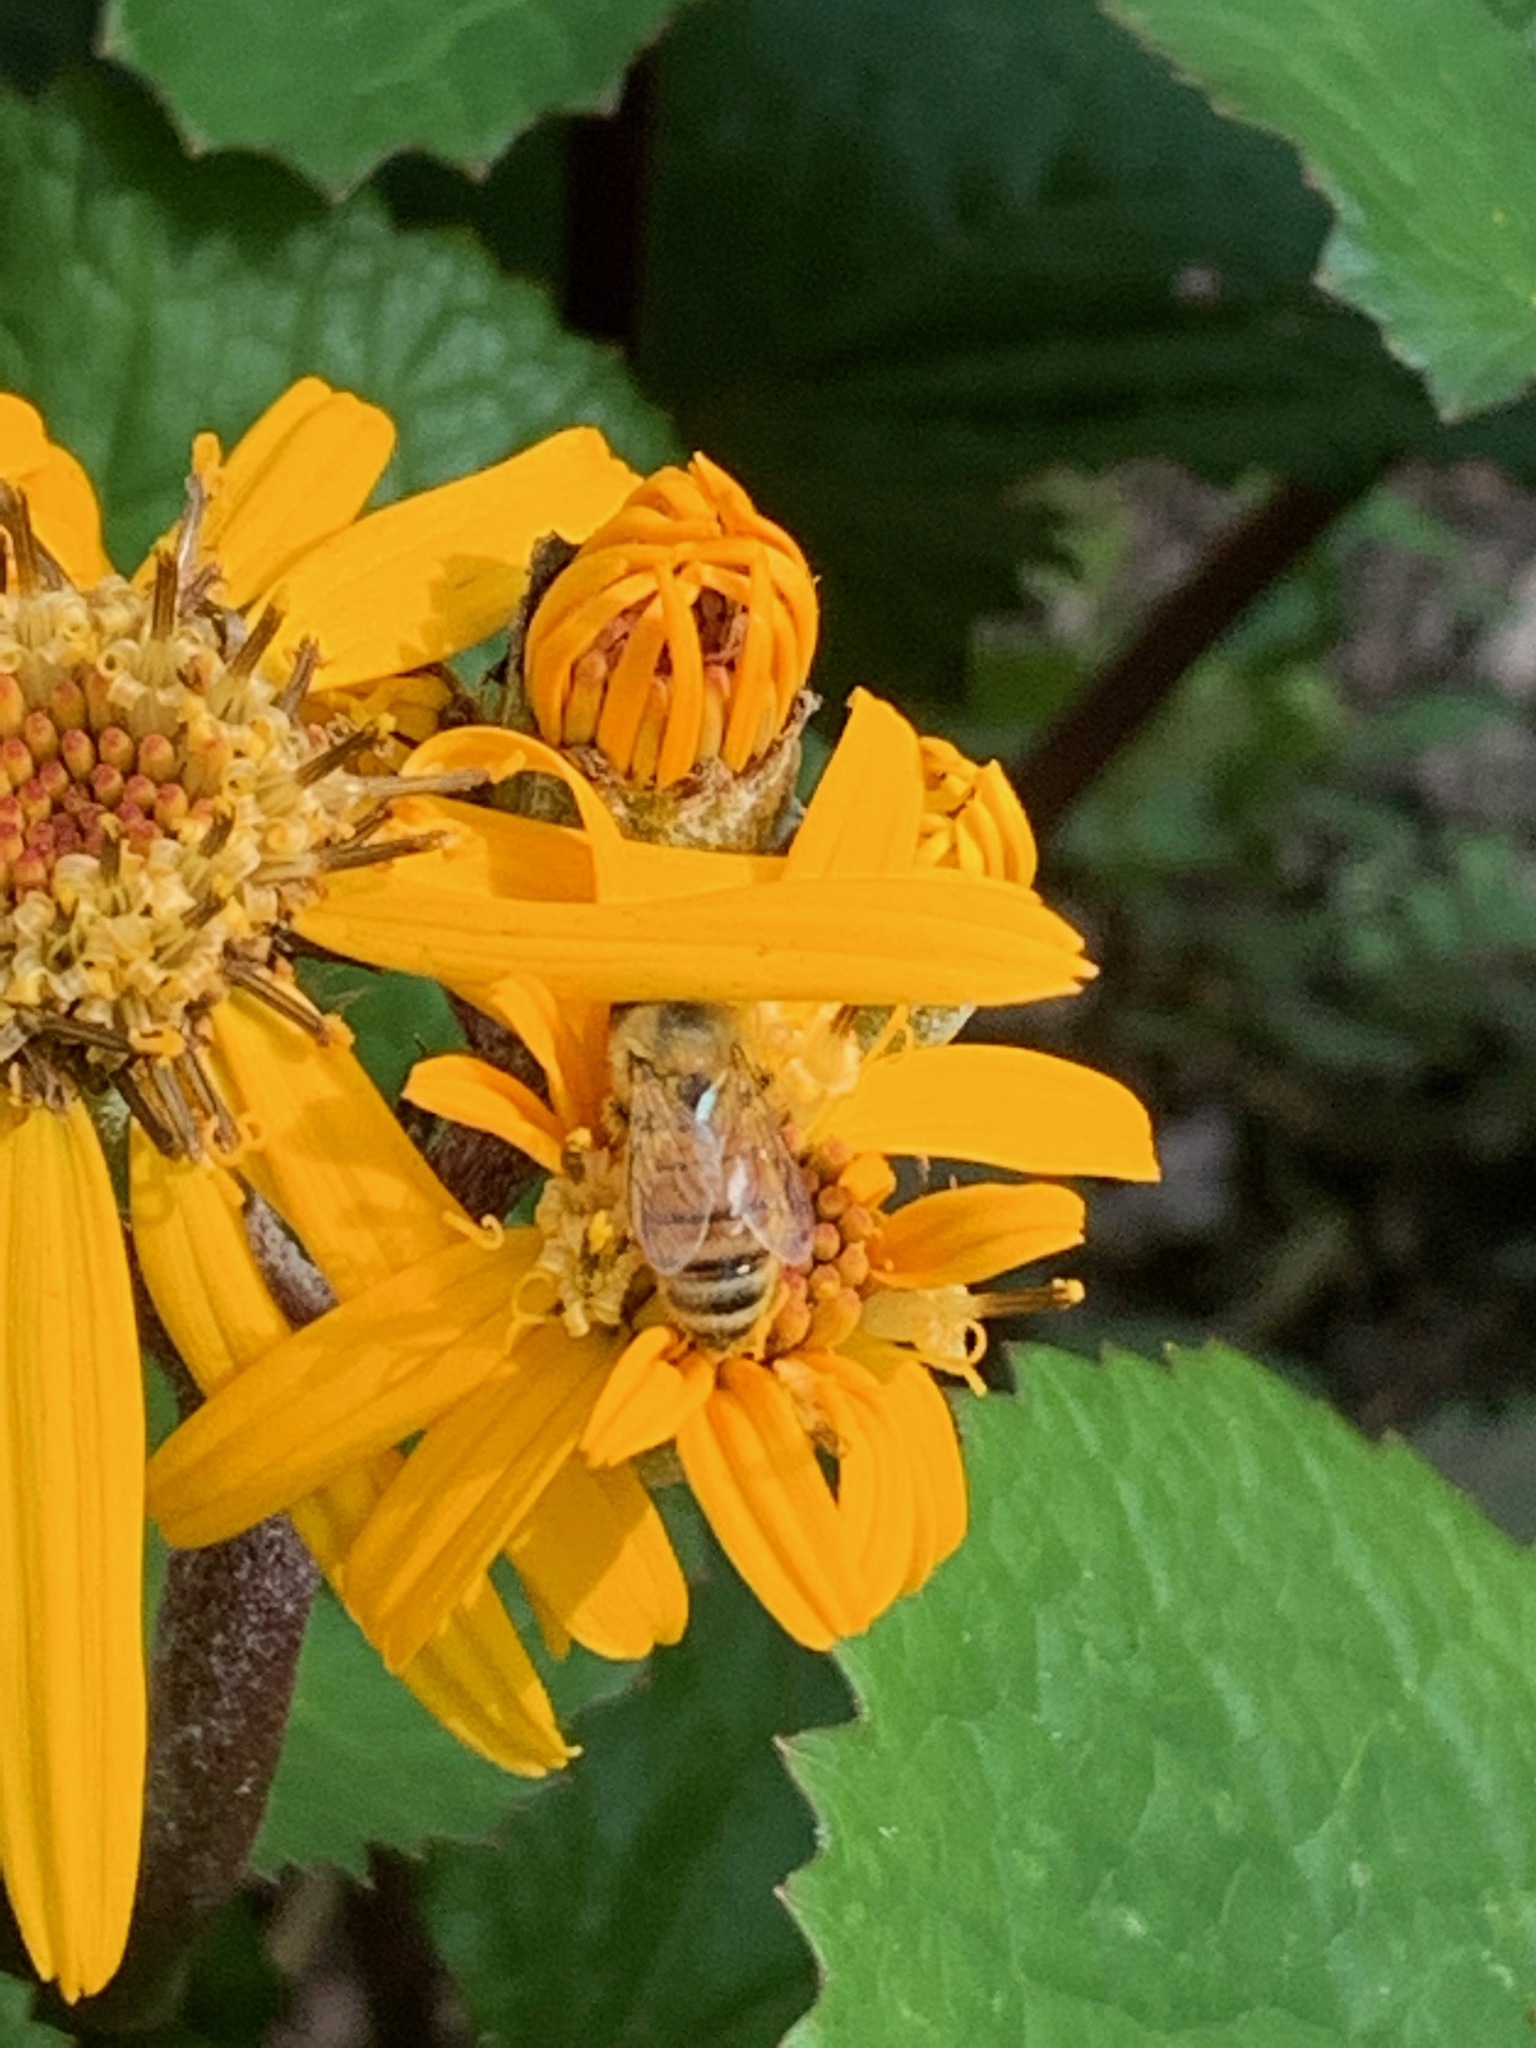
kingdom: Animalia
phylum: Arthropoda
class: Insecta
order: Hymenoptera
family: Apidae
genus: Apis
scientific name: Apis mellifera
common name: Honey bee
